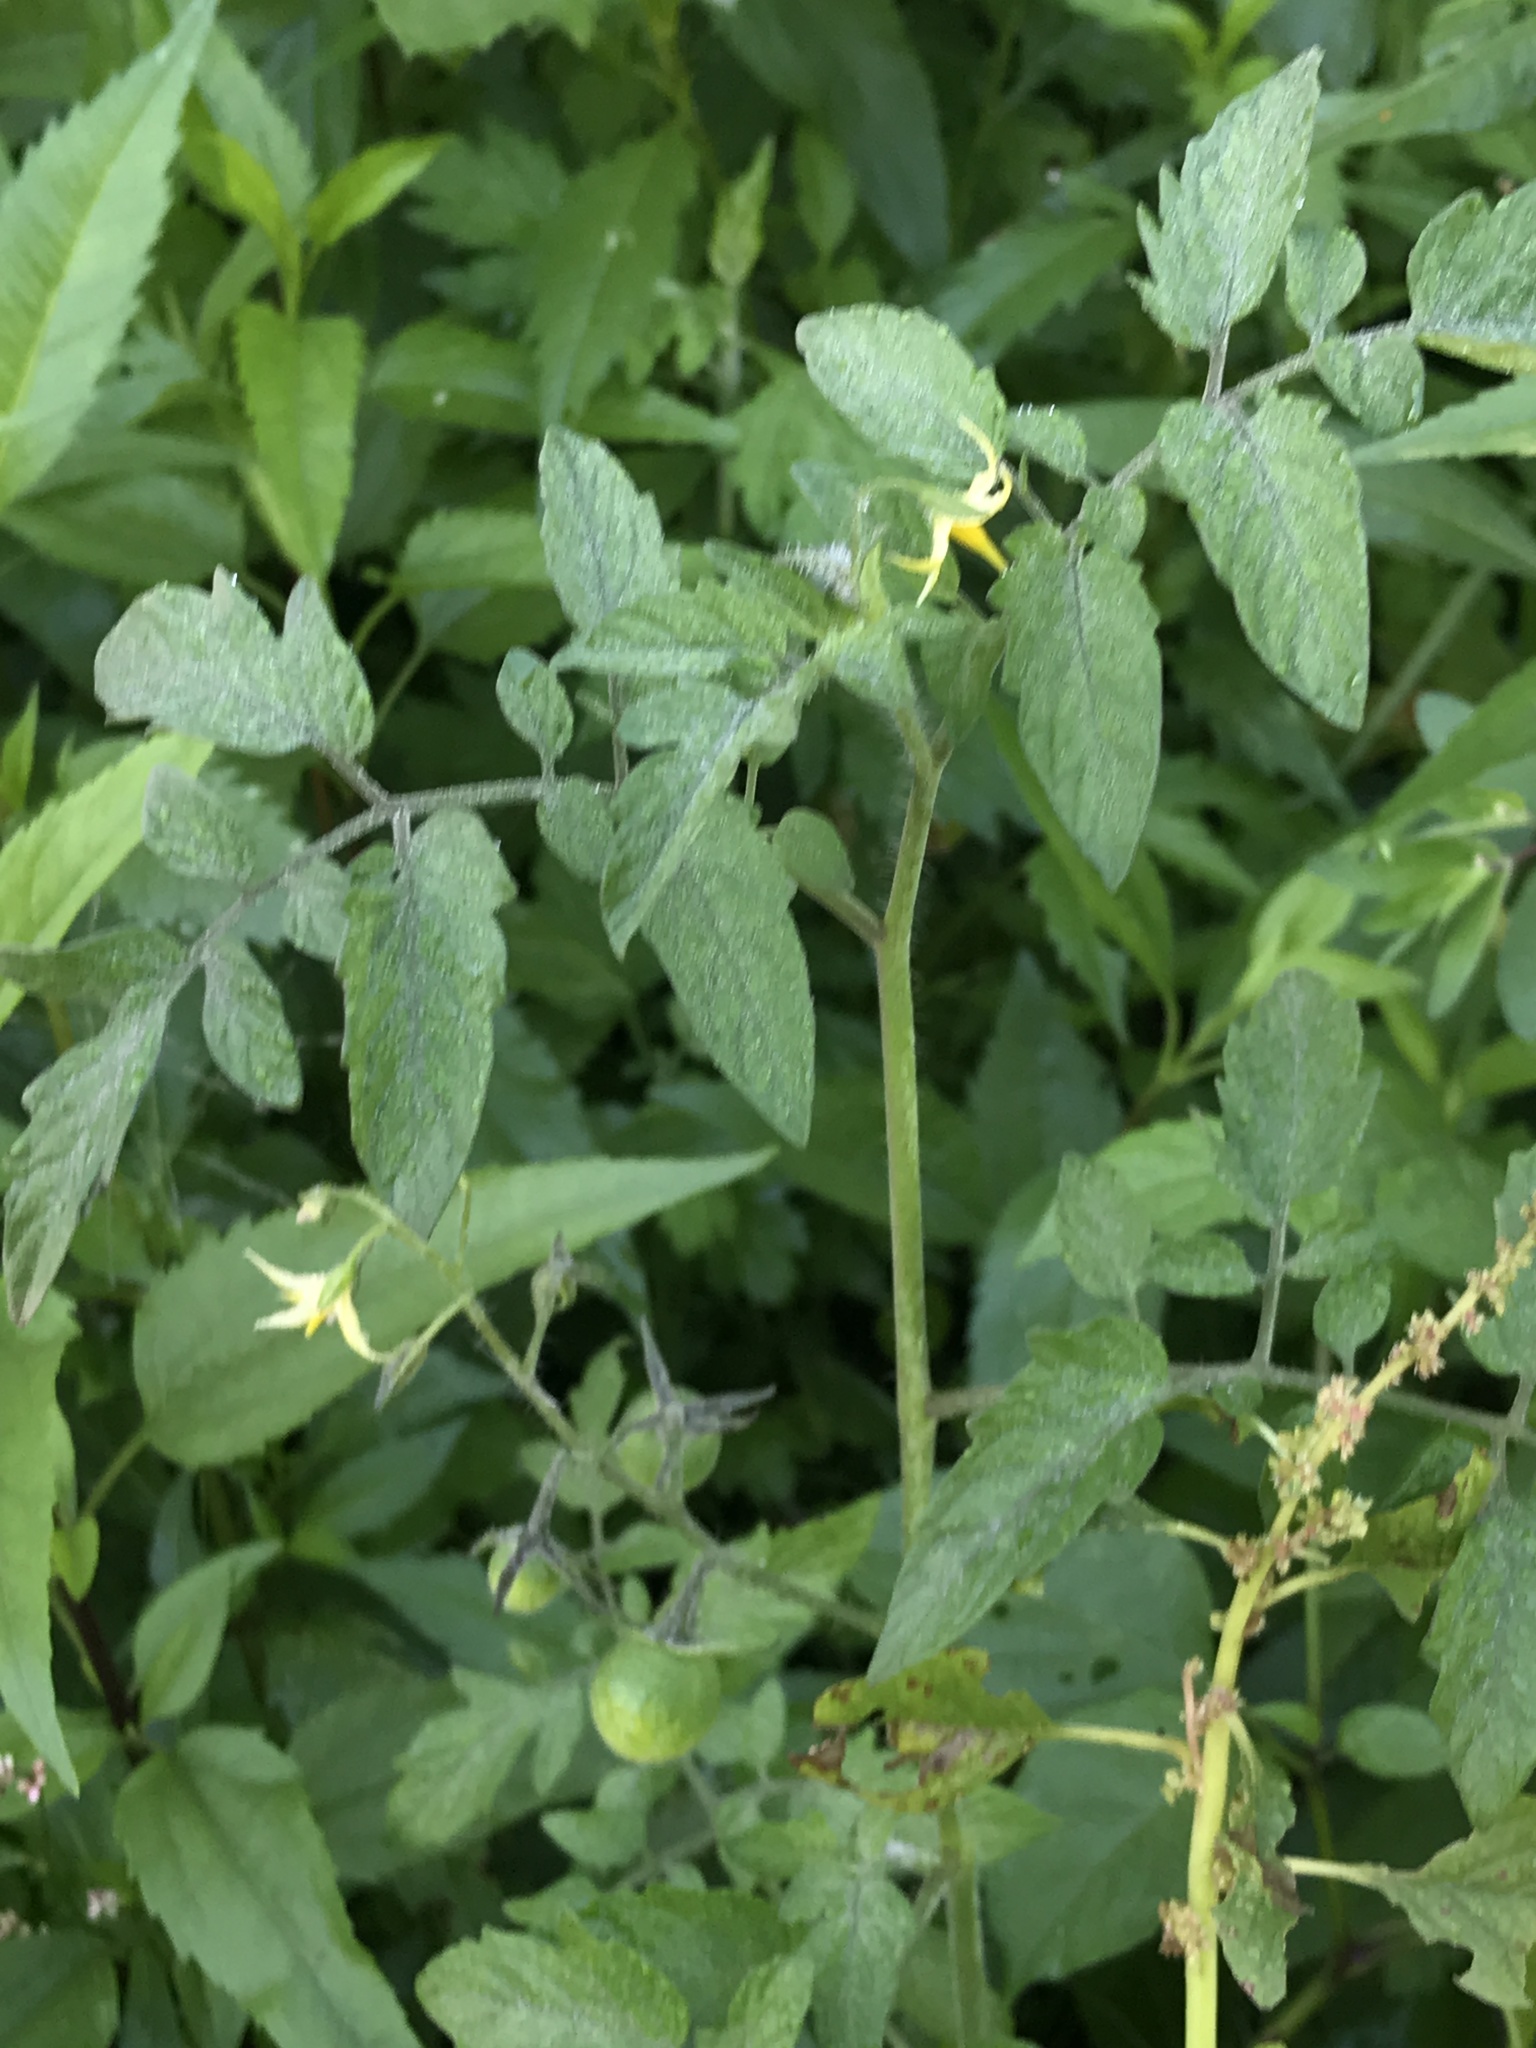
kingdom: Plantae
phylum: Tracheophyta
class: Magnoliopsida
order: Solanales
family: Solanaceae
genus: Solanum
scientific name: Solanum lycopersicum
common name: Garden tomato
